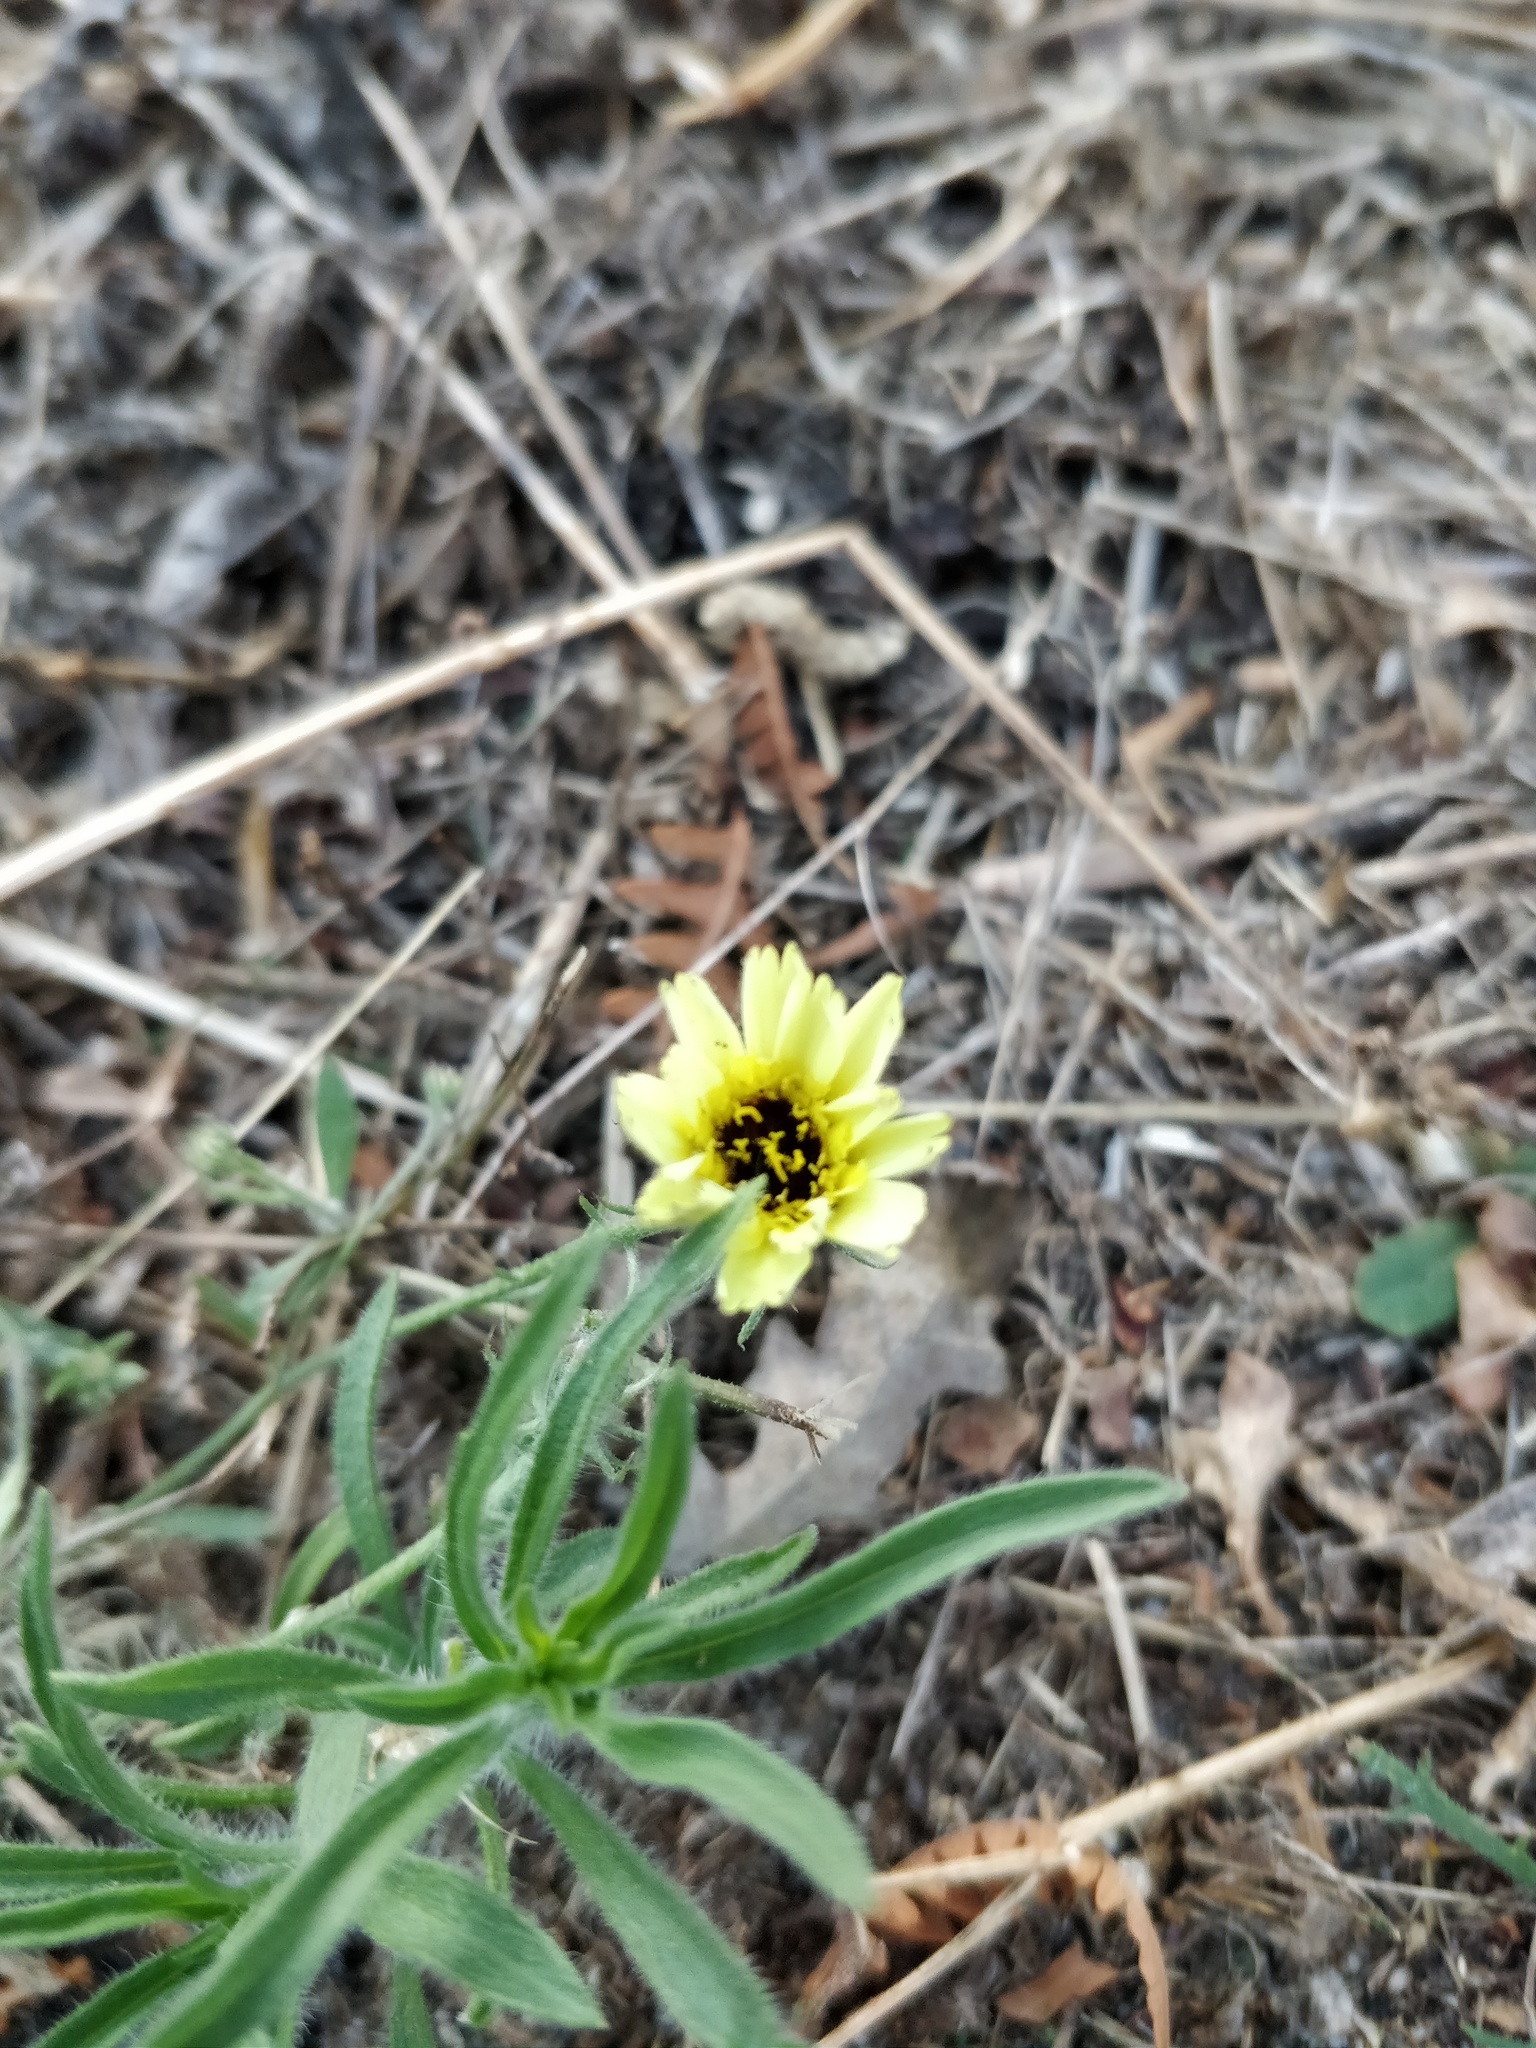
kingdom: Plantae
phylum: Tracheophyta
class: Magnoliopsida
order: Asterales
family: Asteraceae
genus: Tolpis
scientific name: Tolpis barbata
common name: Yellow hawkweed
